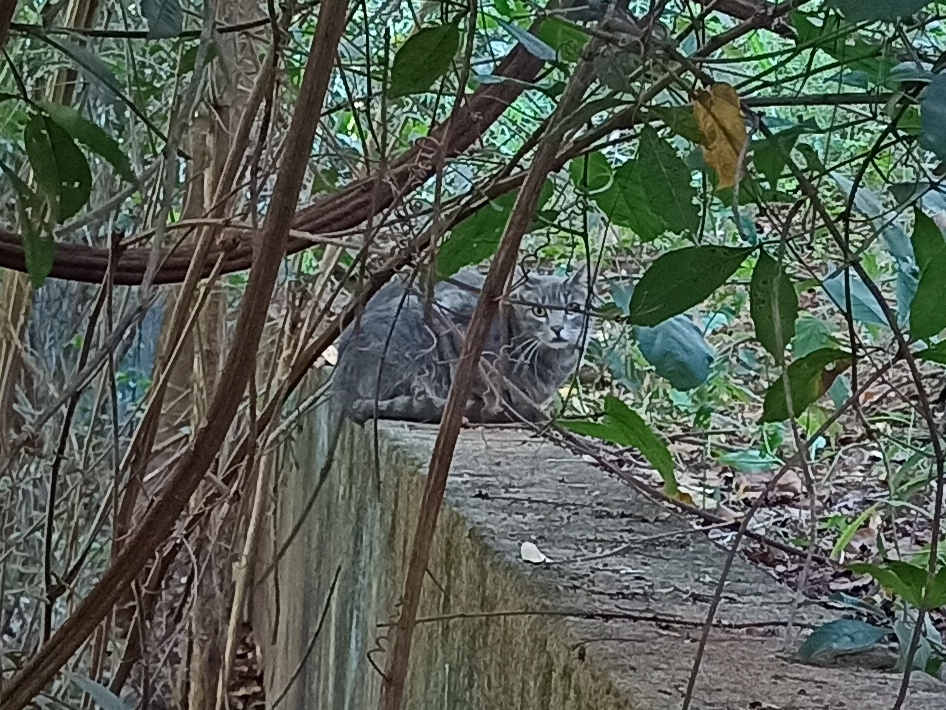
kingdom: Animalia
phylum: Chordata
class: Mammalia
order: Carnivora
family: Felidae
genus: Felis
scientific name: Felis catus
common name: Domestic cat
